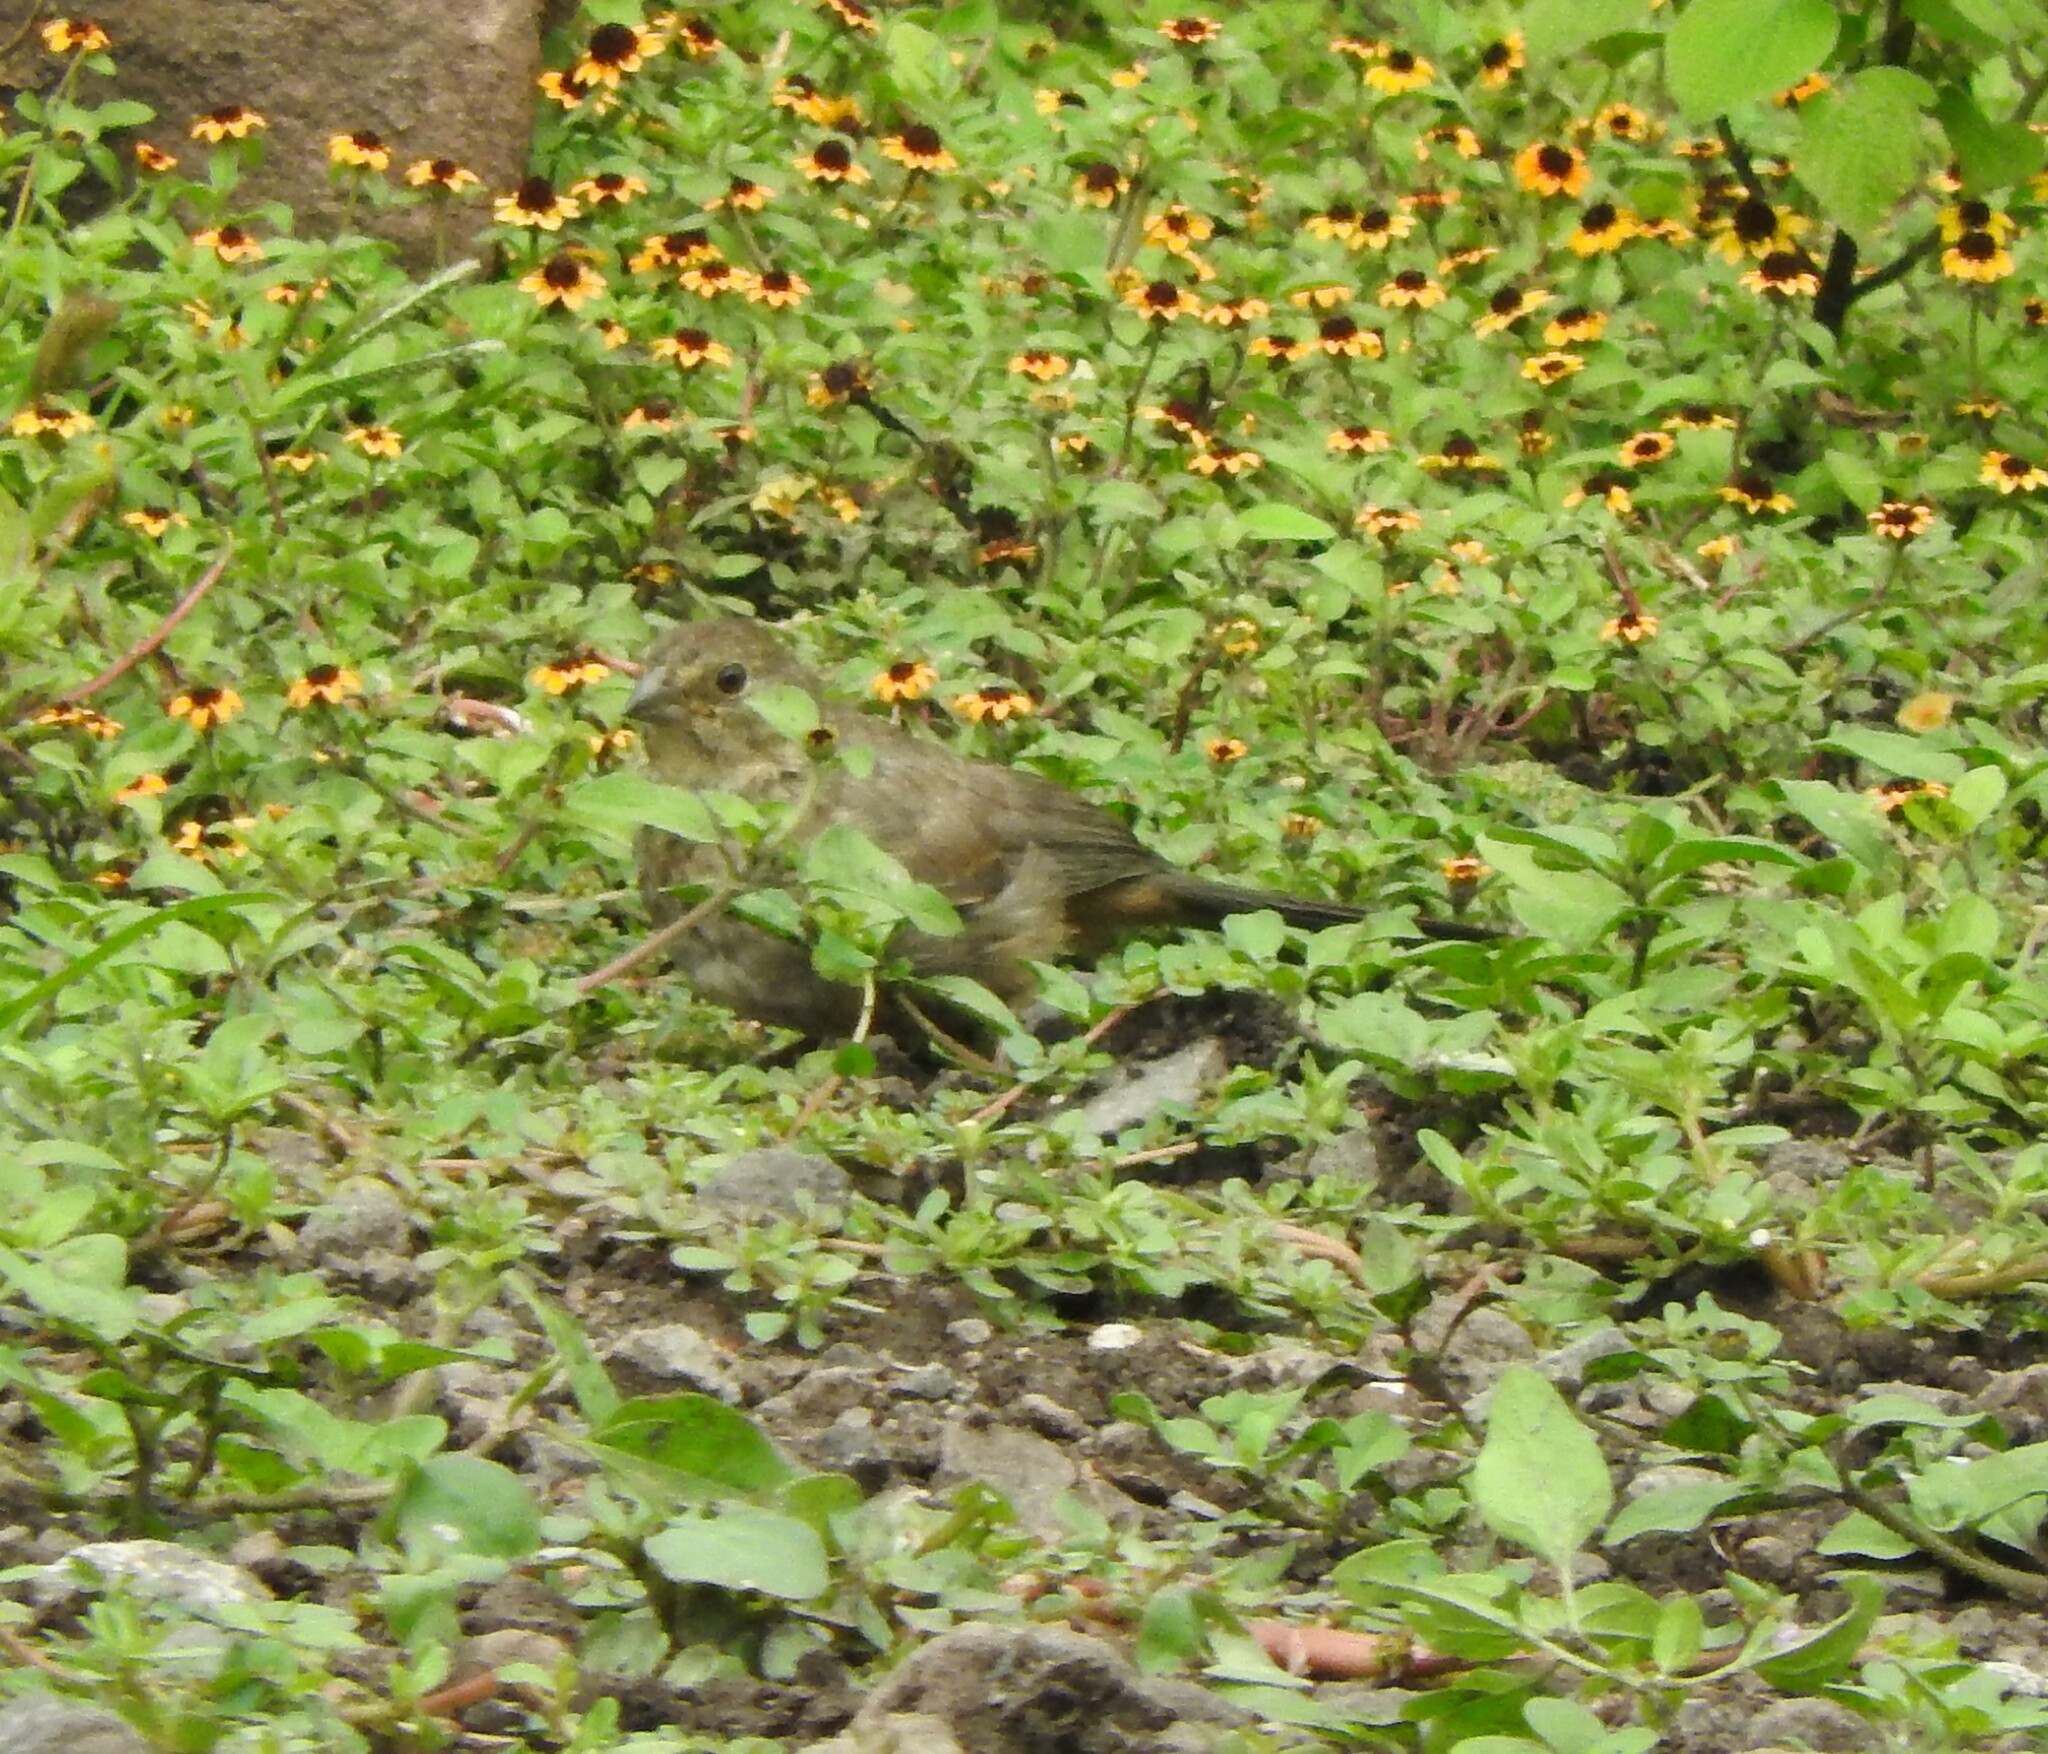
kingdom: Animalia
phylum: Chordata
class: Aves
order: Passeriformes
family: Passerellidae
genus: Melozone
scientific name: Melozone fusca
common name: Canyon towhee
